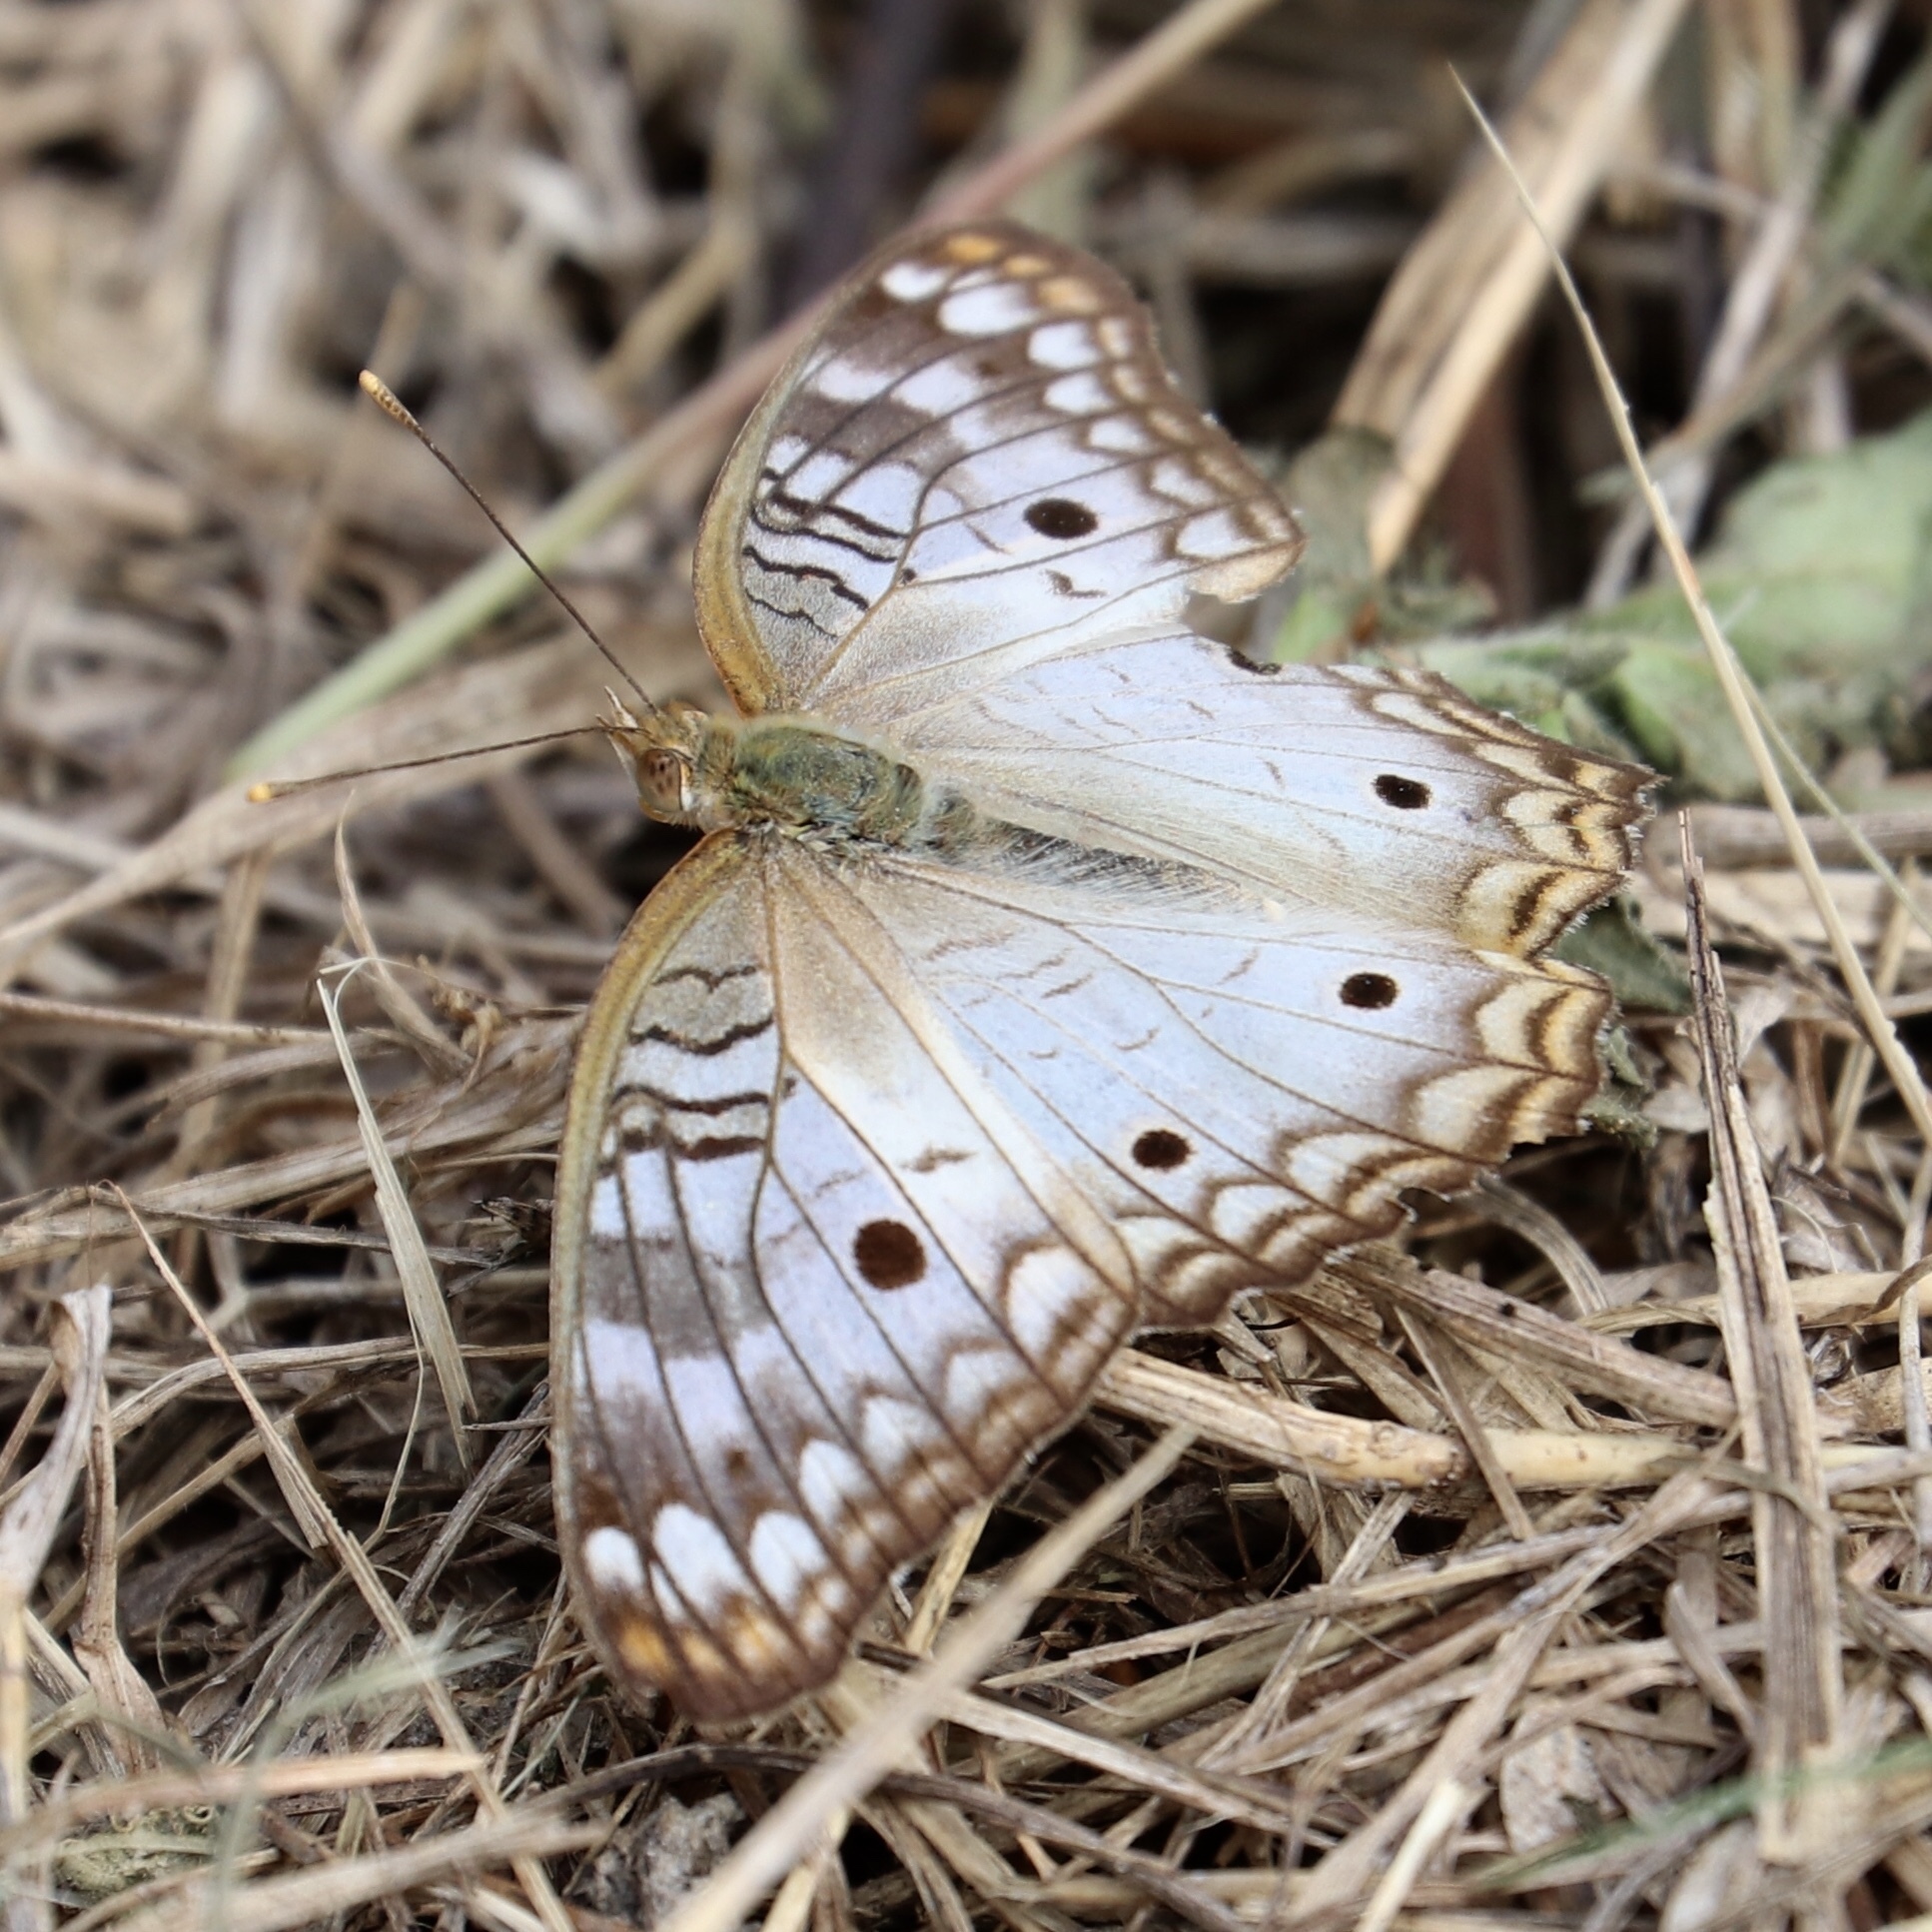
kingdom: Animalia
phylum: Arthropoda
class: Insecta
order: Lepidoptera
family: Nymphalidae
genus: Anartia
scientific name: Anartia jatrophae
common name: White peacock
